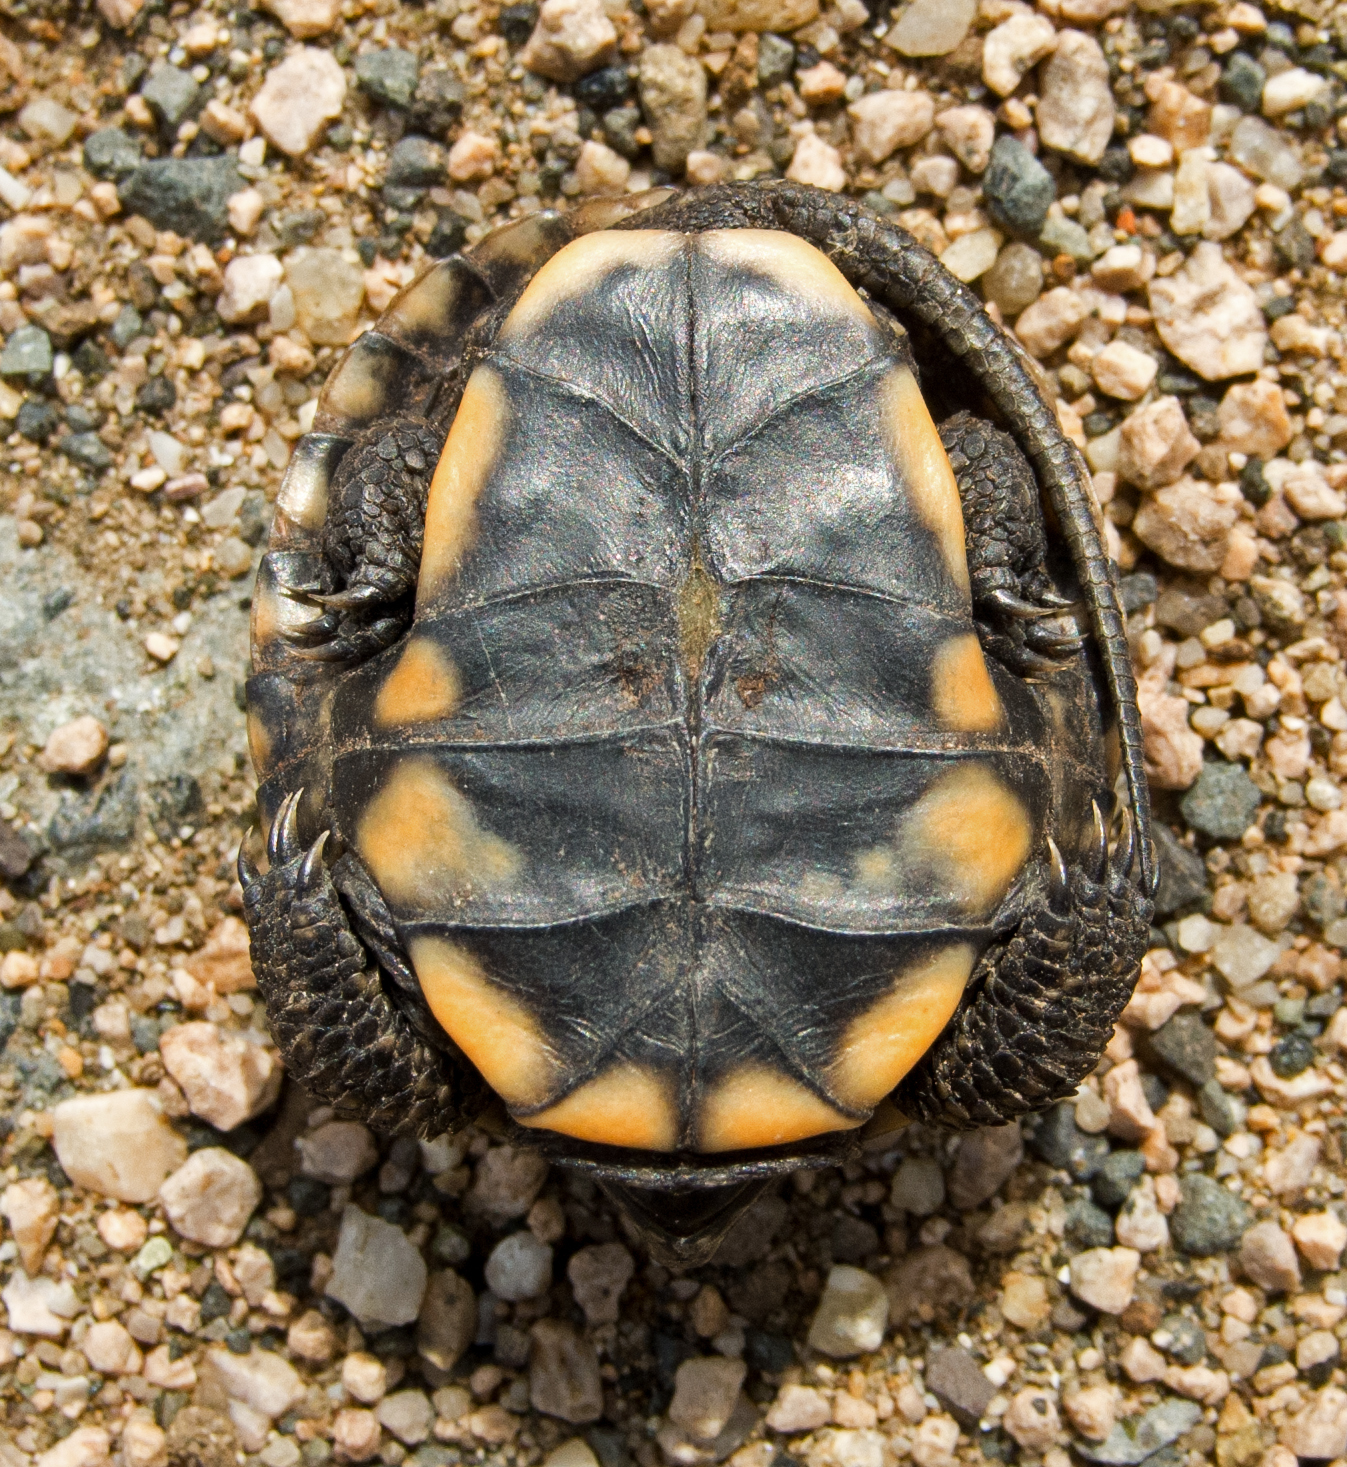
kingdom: Animalia
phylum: Chordata
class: Testudines
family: Emydidae
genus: Emys
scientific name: Emys orbicularis
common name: European pond turtle
